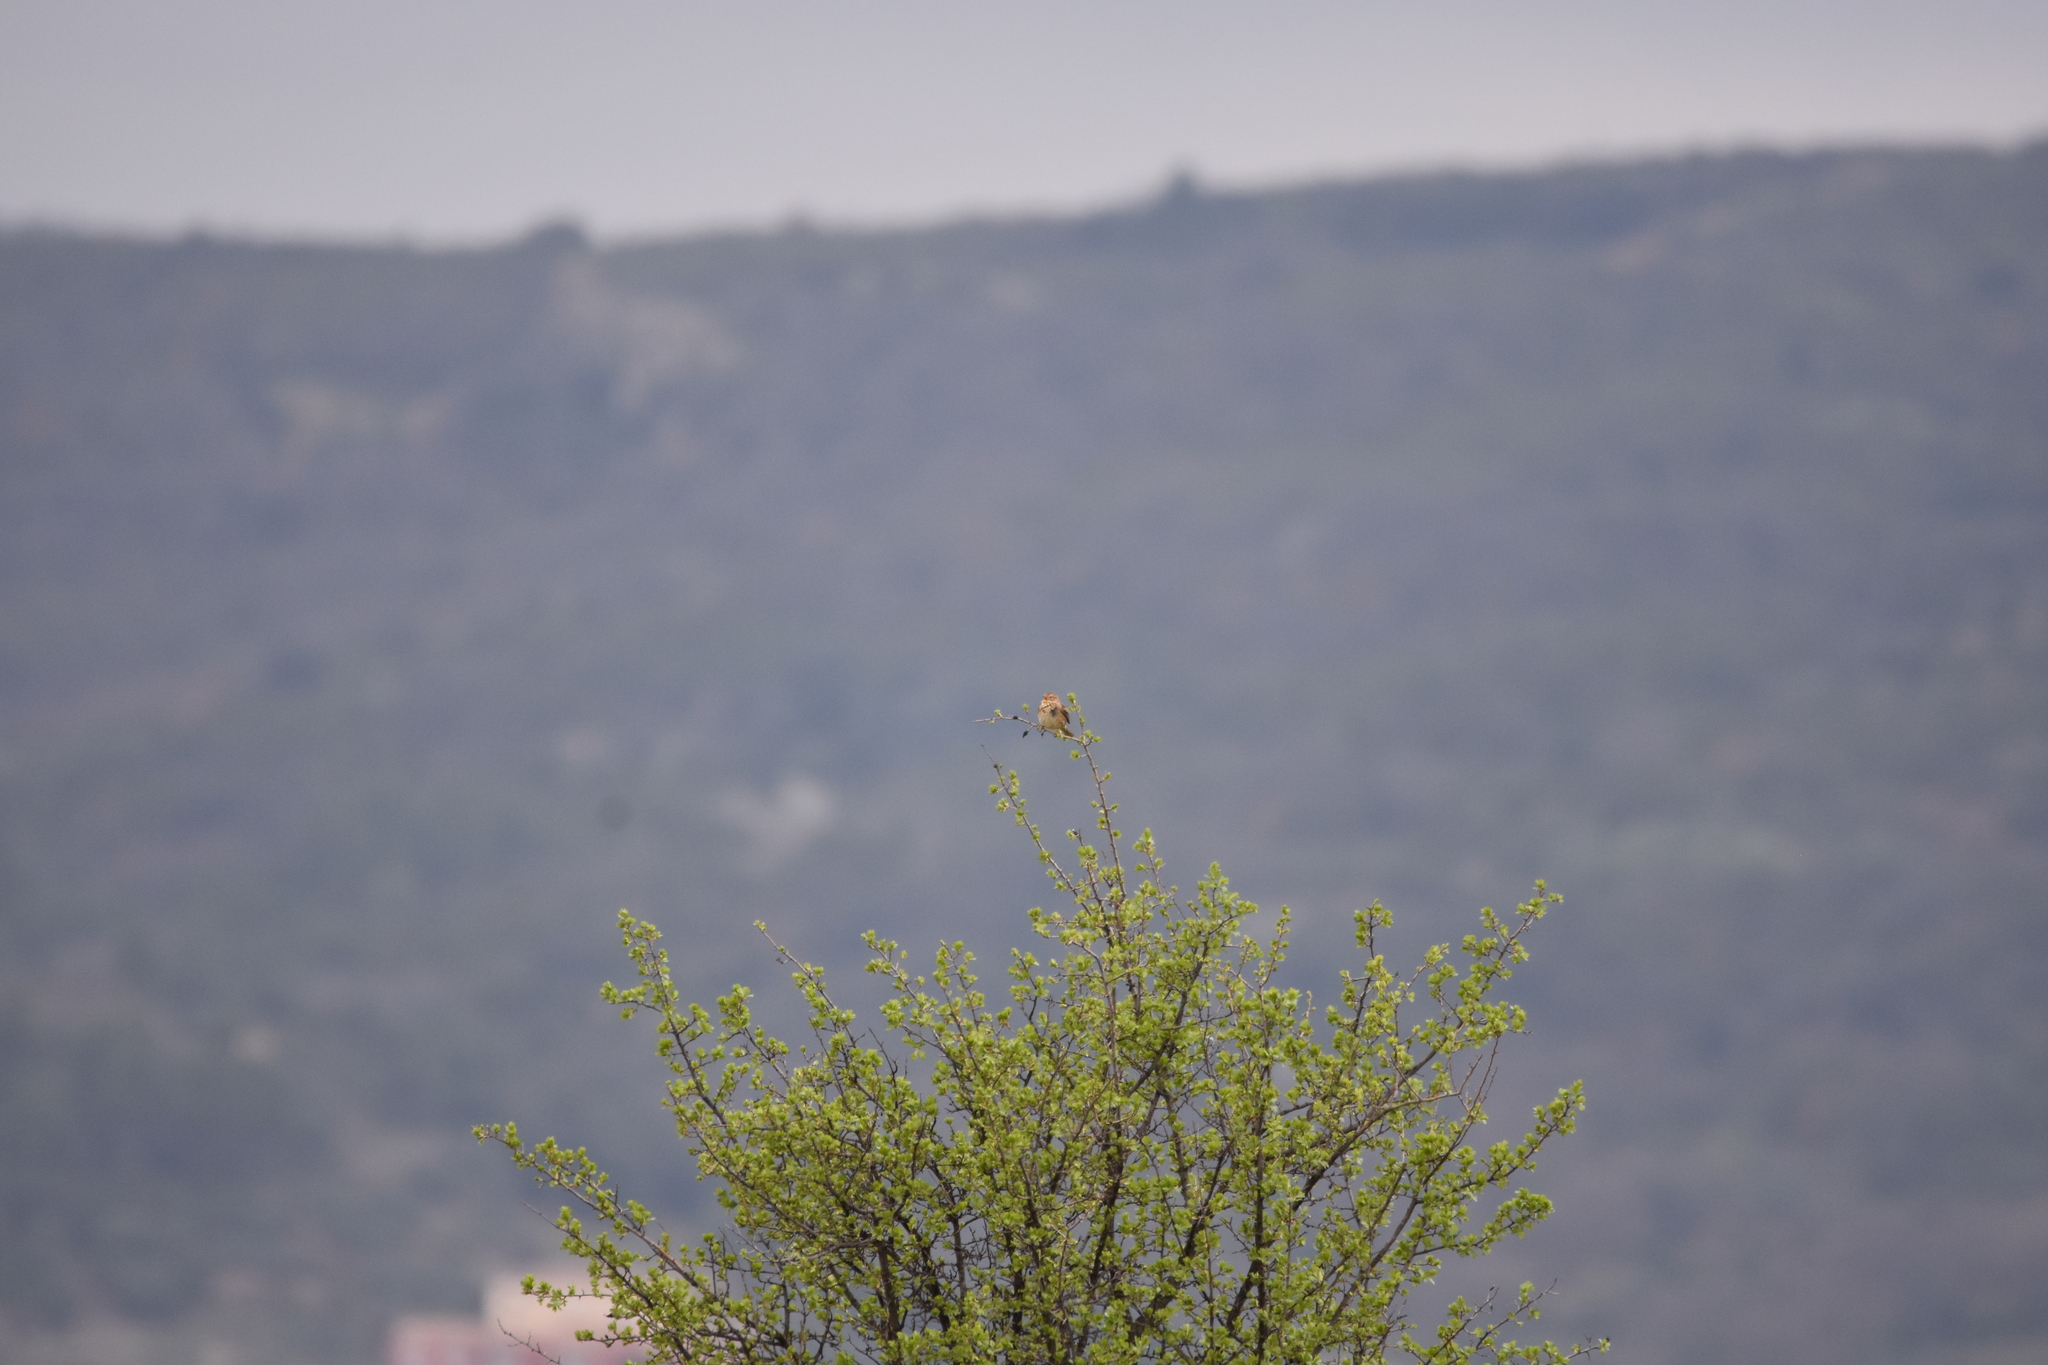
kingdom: Animalia
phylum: Chordata
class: Aves
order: Passeriformes
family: Emberizidae
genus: Emberiza
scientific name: Emberiza calandra
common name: Corn bunting
